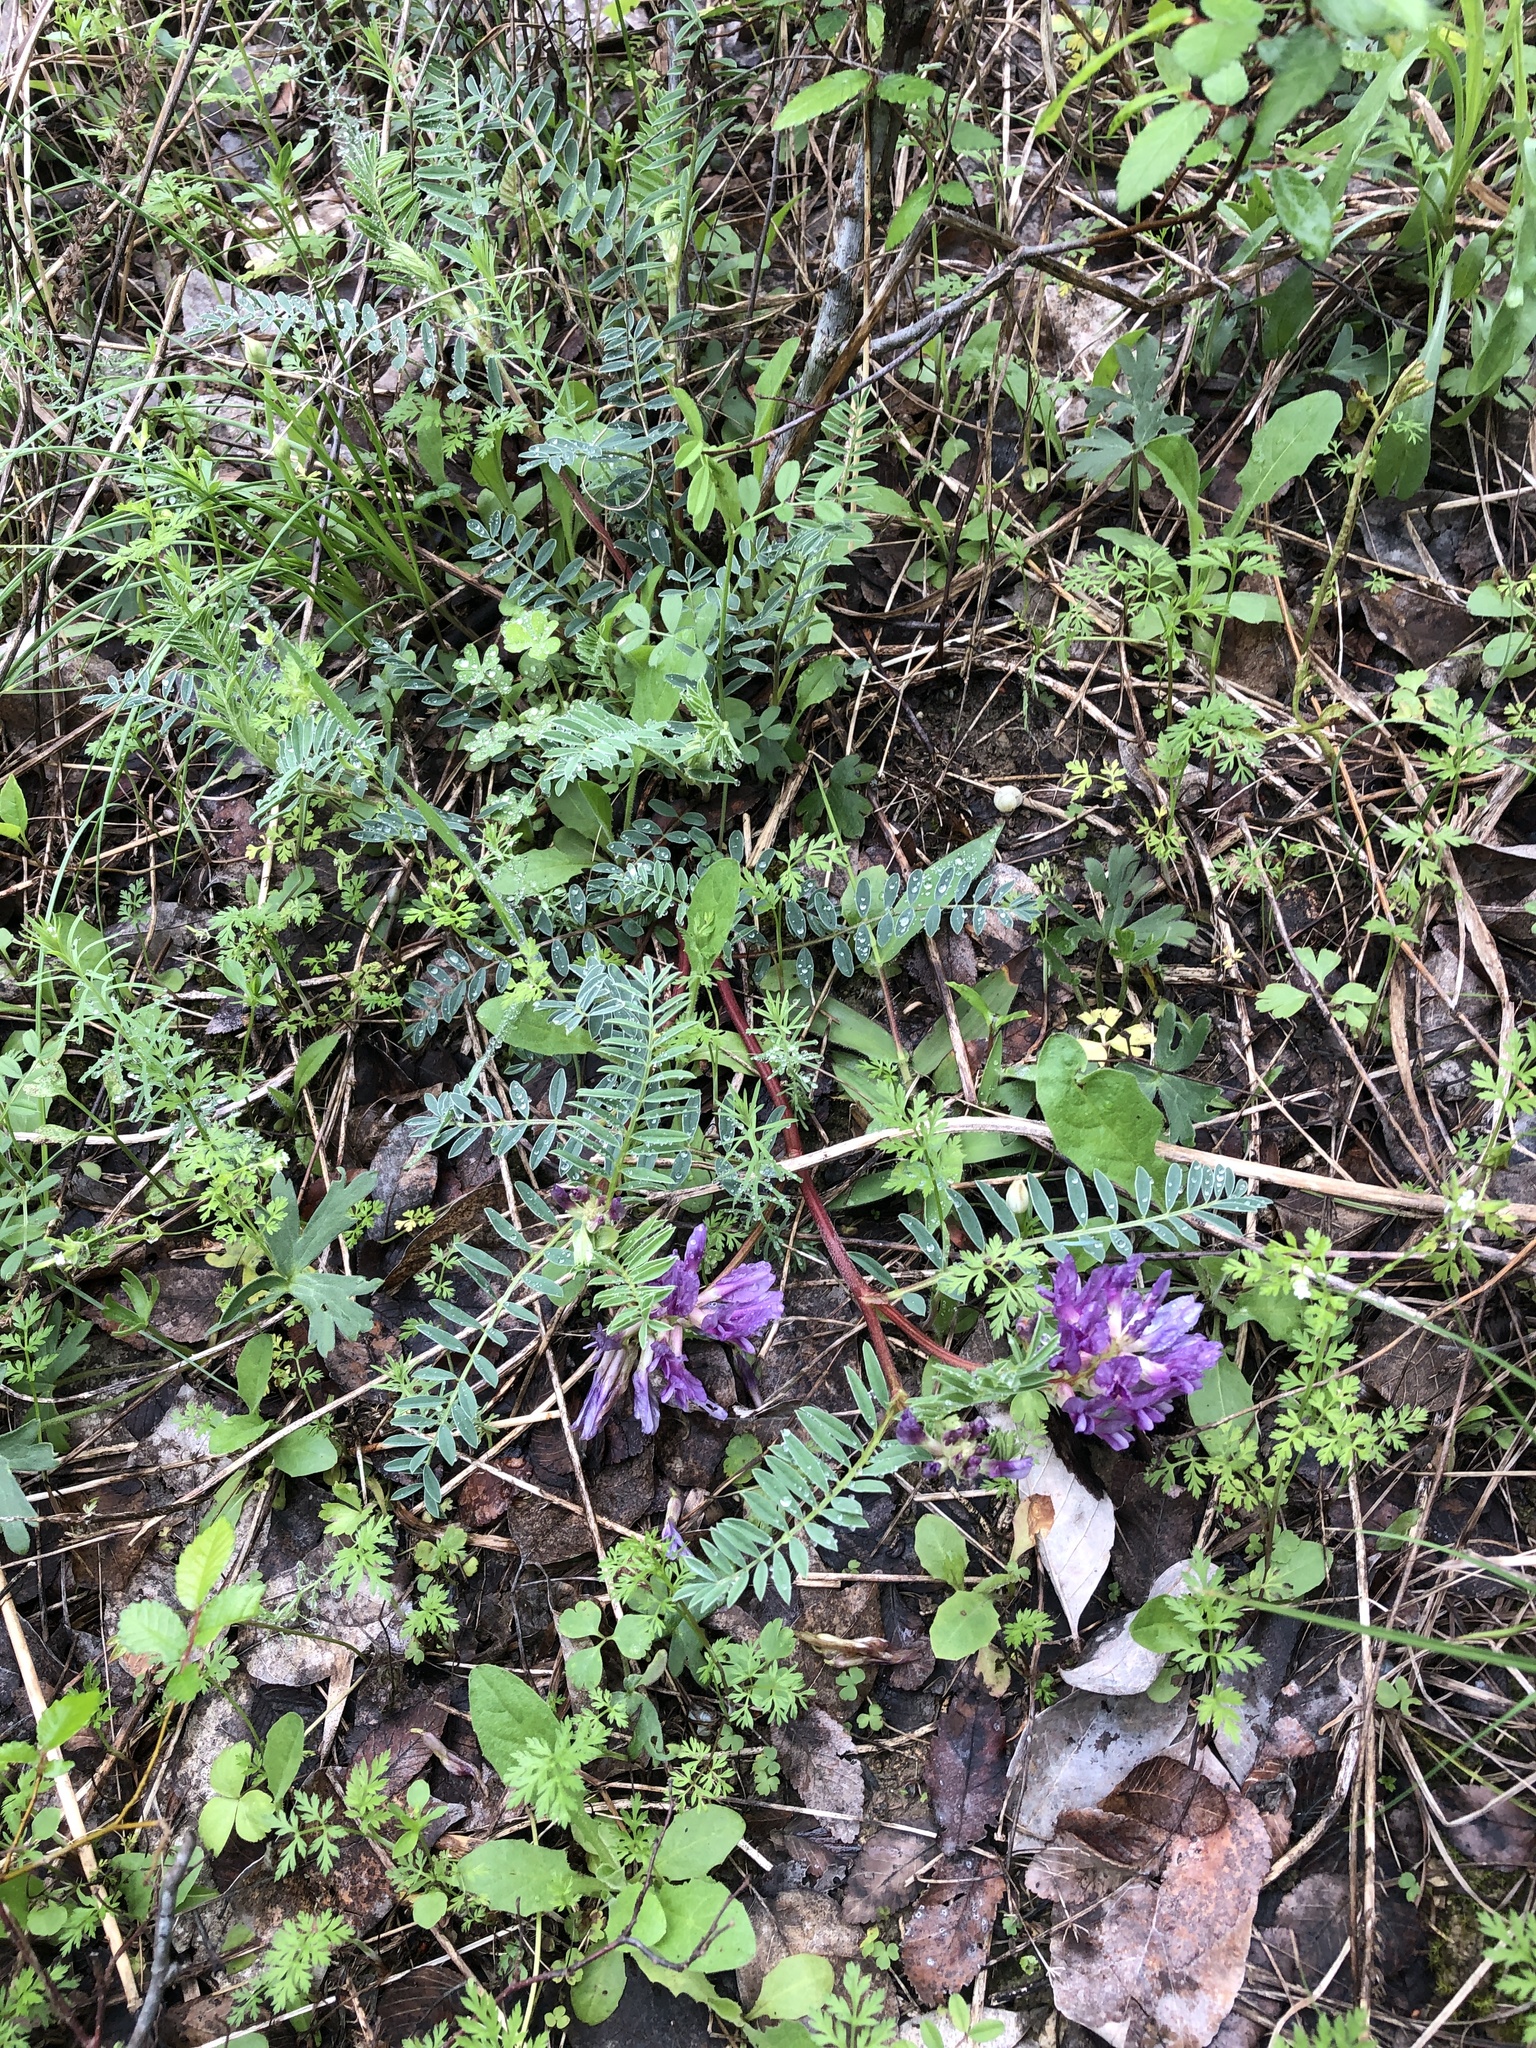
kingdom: Plantae
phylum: Tracheophyta
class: Magnoliopsida
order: Fabales
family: Fabaceae
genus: Astragalus
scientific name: Astragalus crassicarpus
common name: Ground-plum milk-vetch
